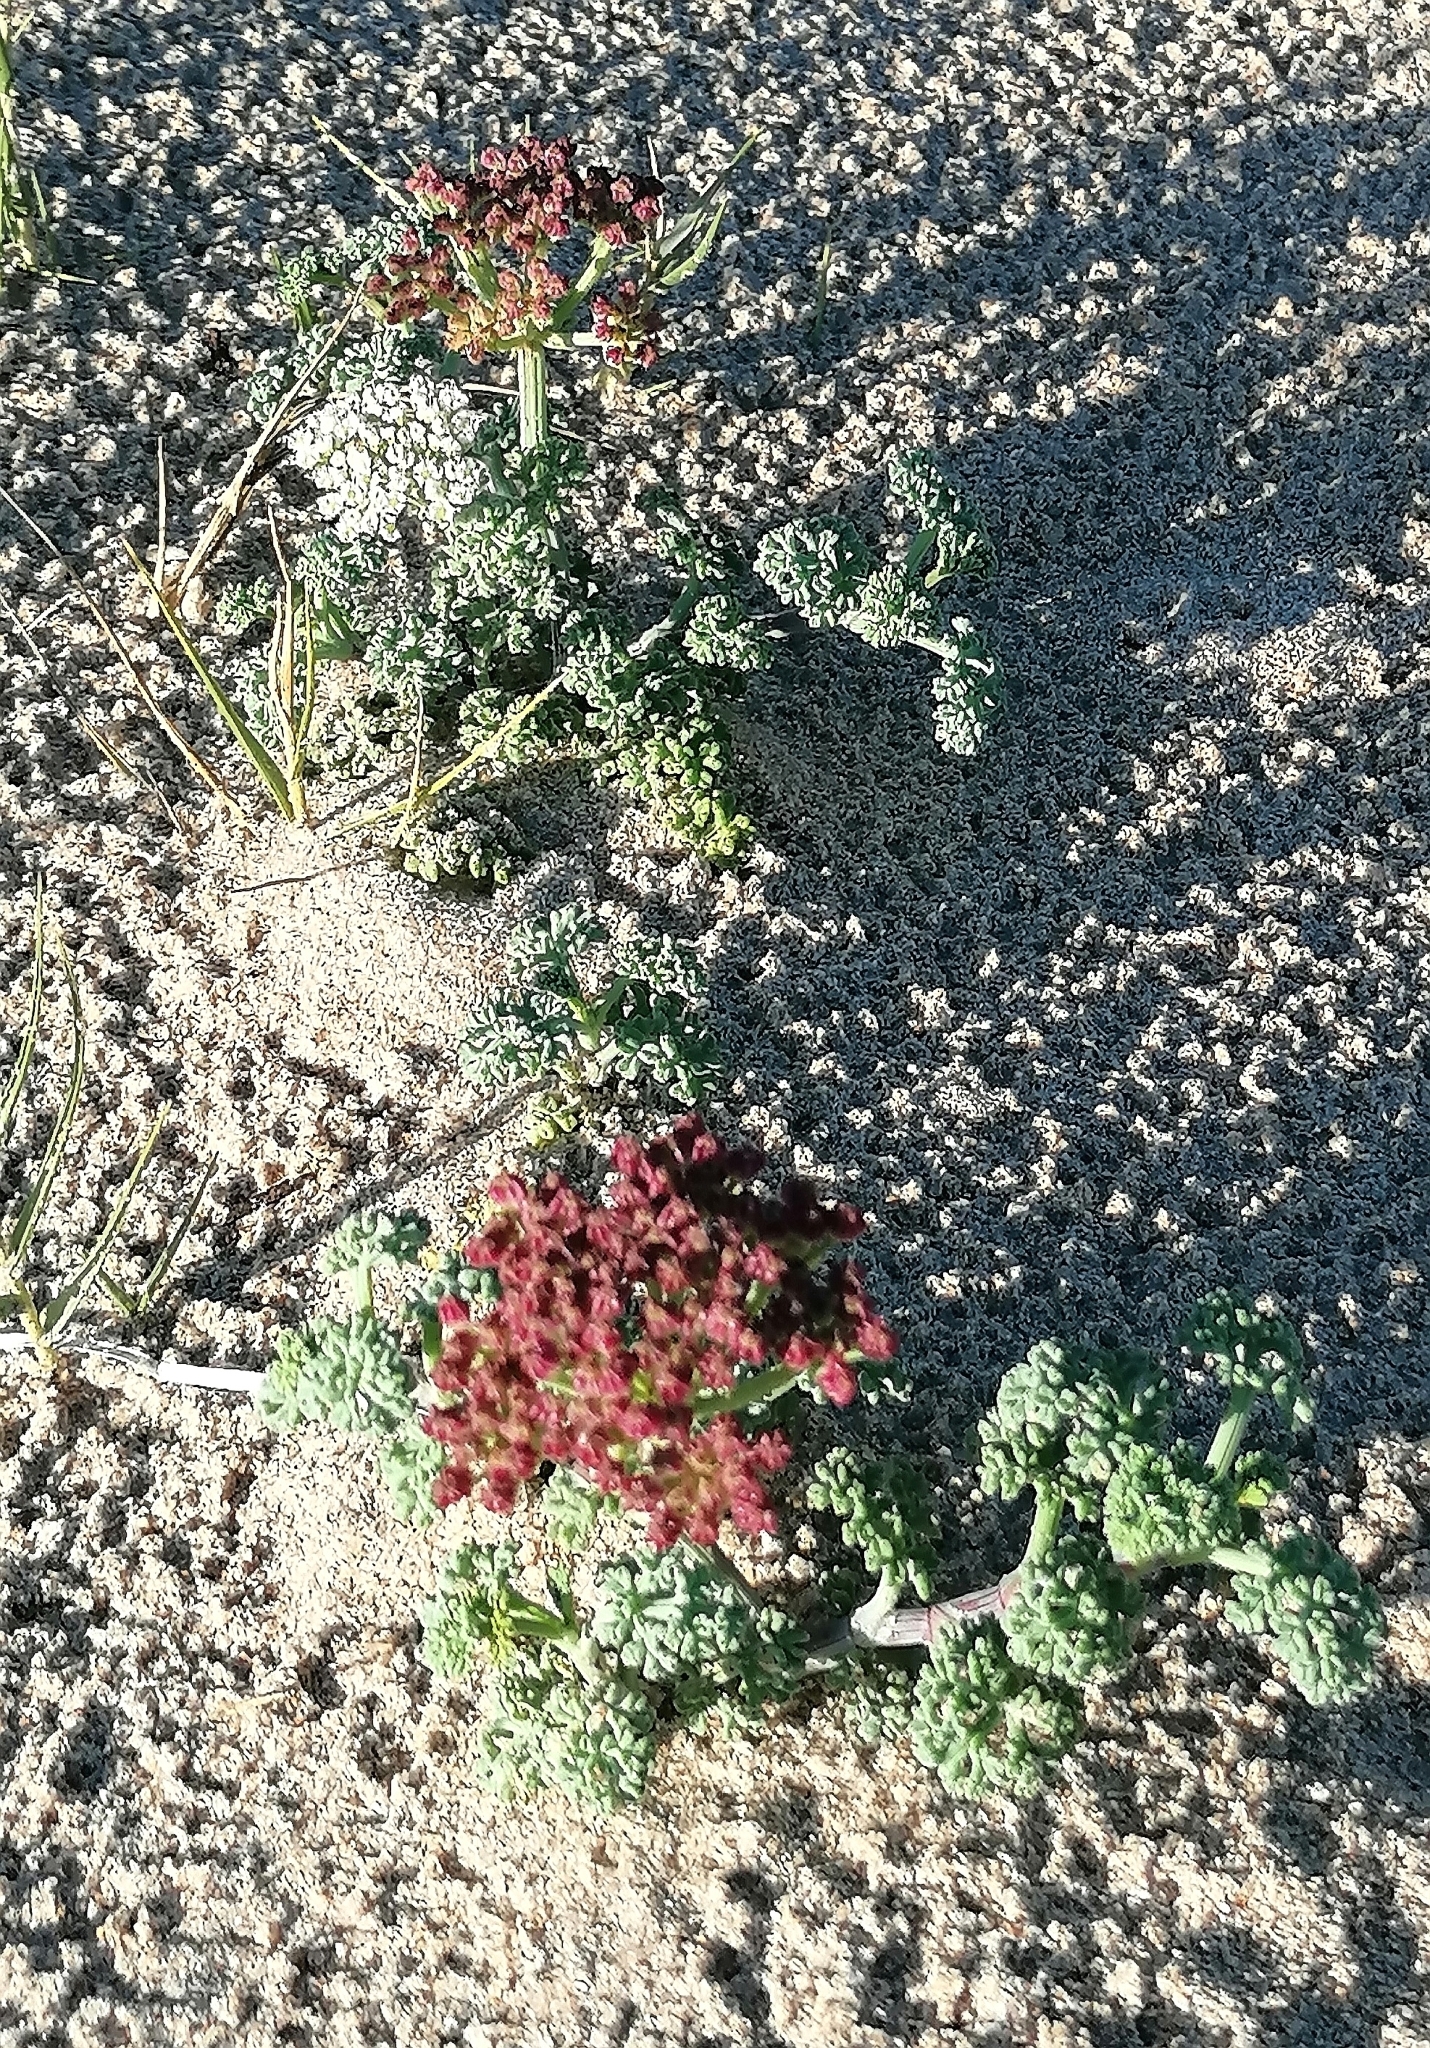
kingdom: Plantae
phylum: Tracheophyta
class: Magnoliopsida
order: Apiales
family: Apiaceae
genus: Dasispermum
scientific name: Dasispermum suffruticosum
